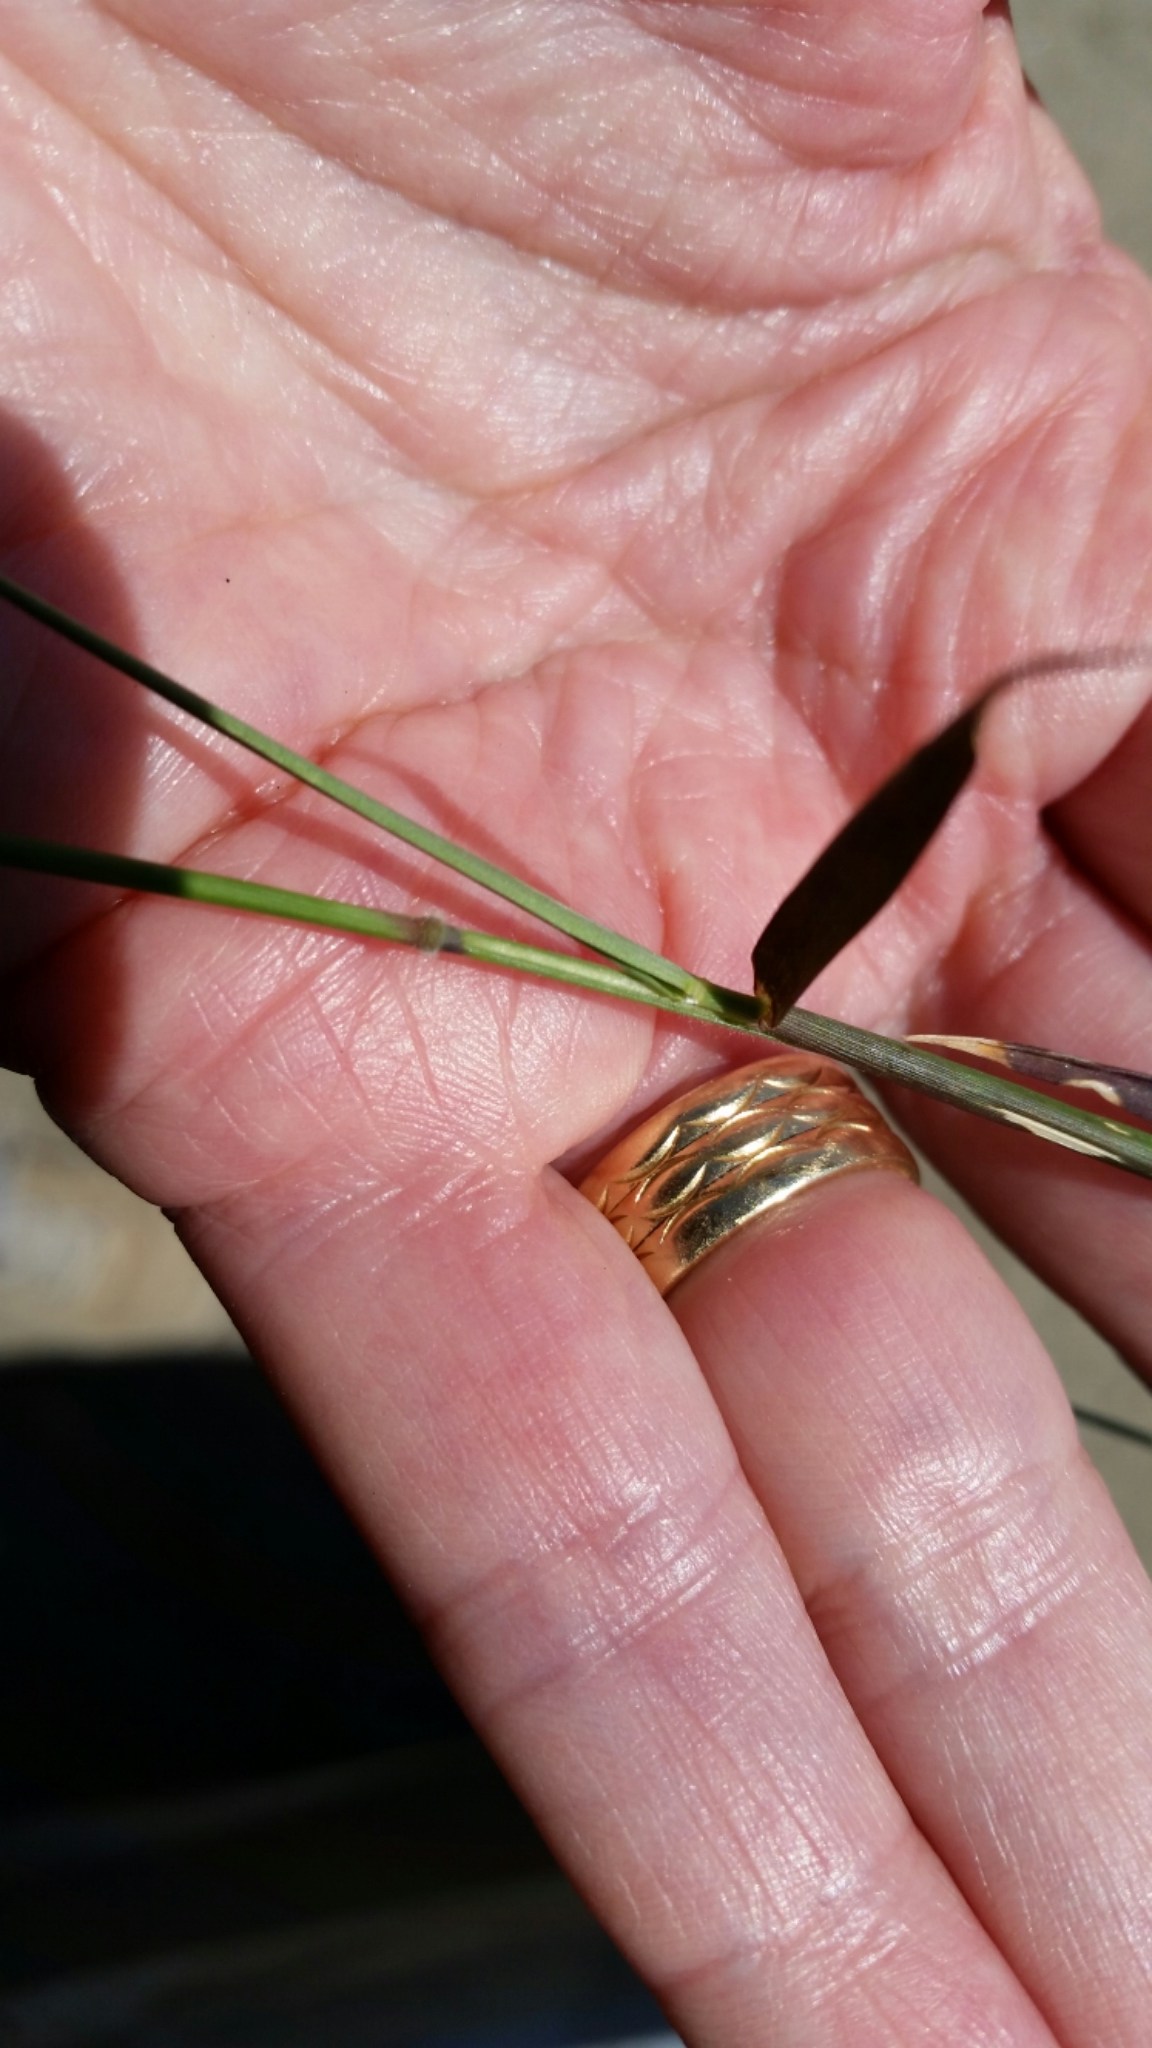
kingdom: Plantae
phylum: Tracheophyta
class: Liliopsida
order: Poales
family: Poaceae
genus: Melinis
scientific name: Melinis repens
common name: Rose natal grass
